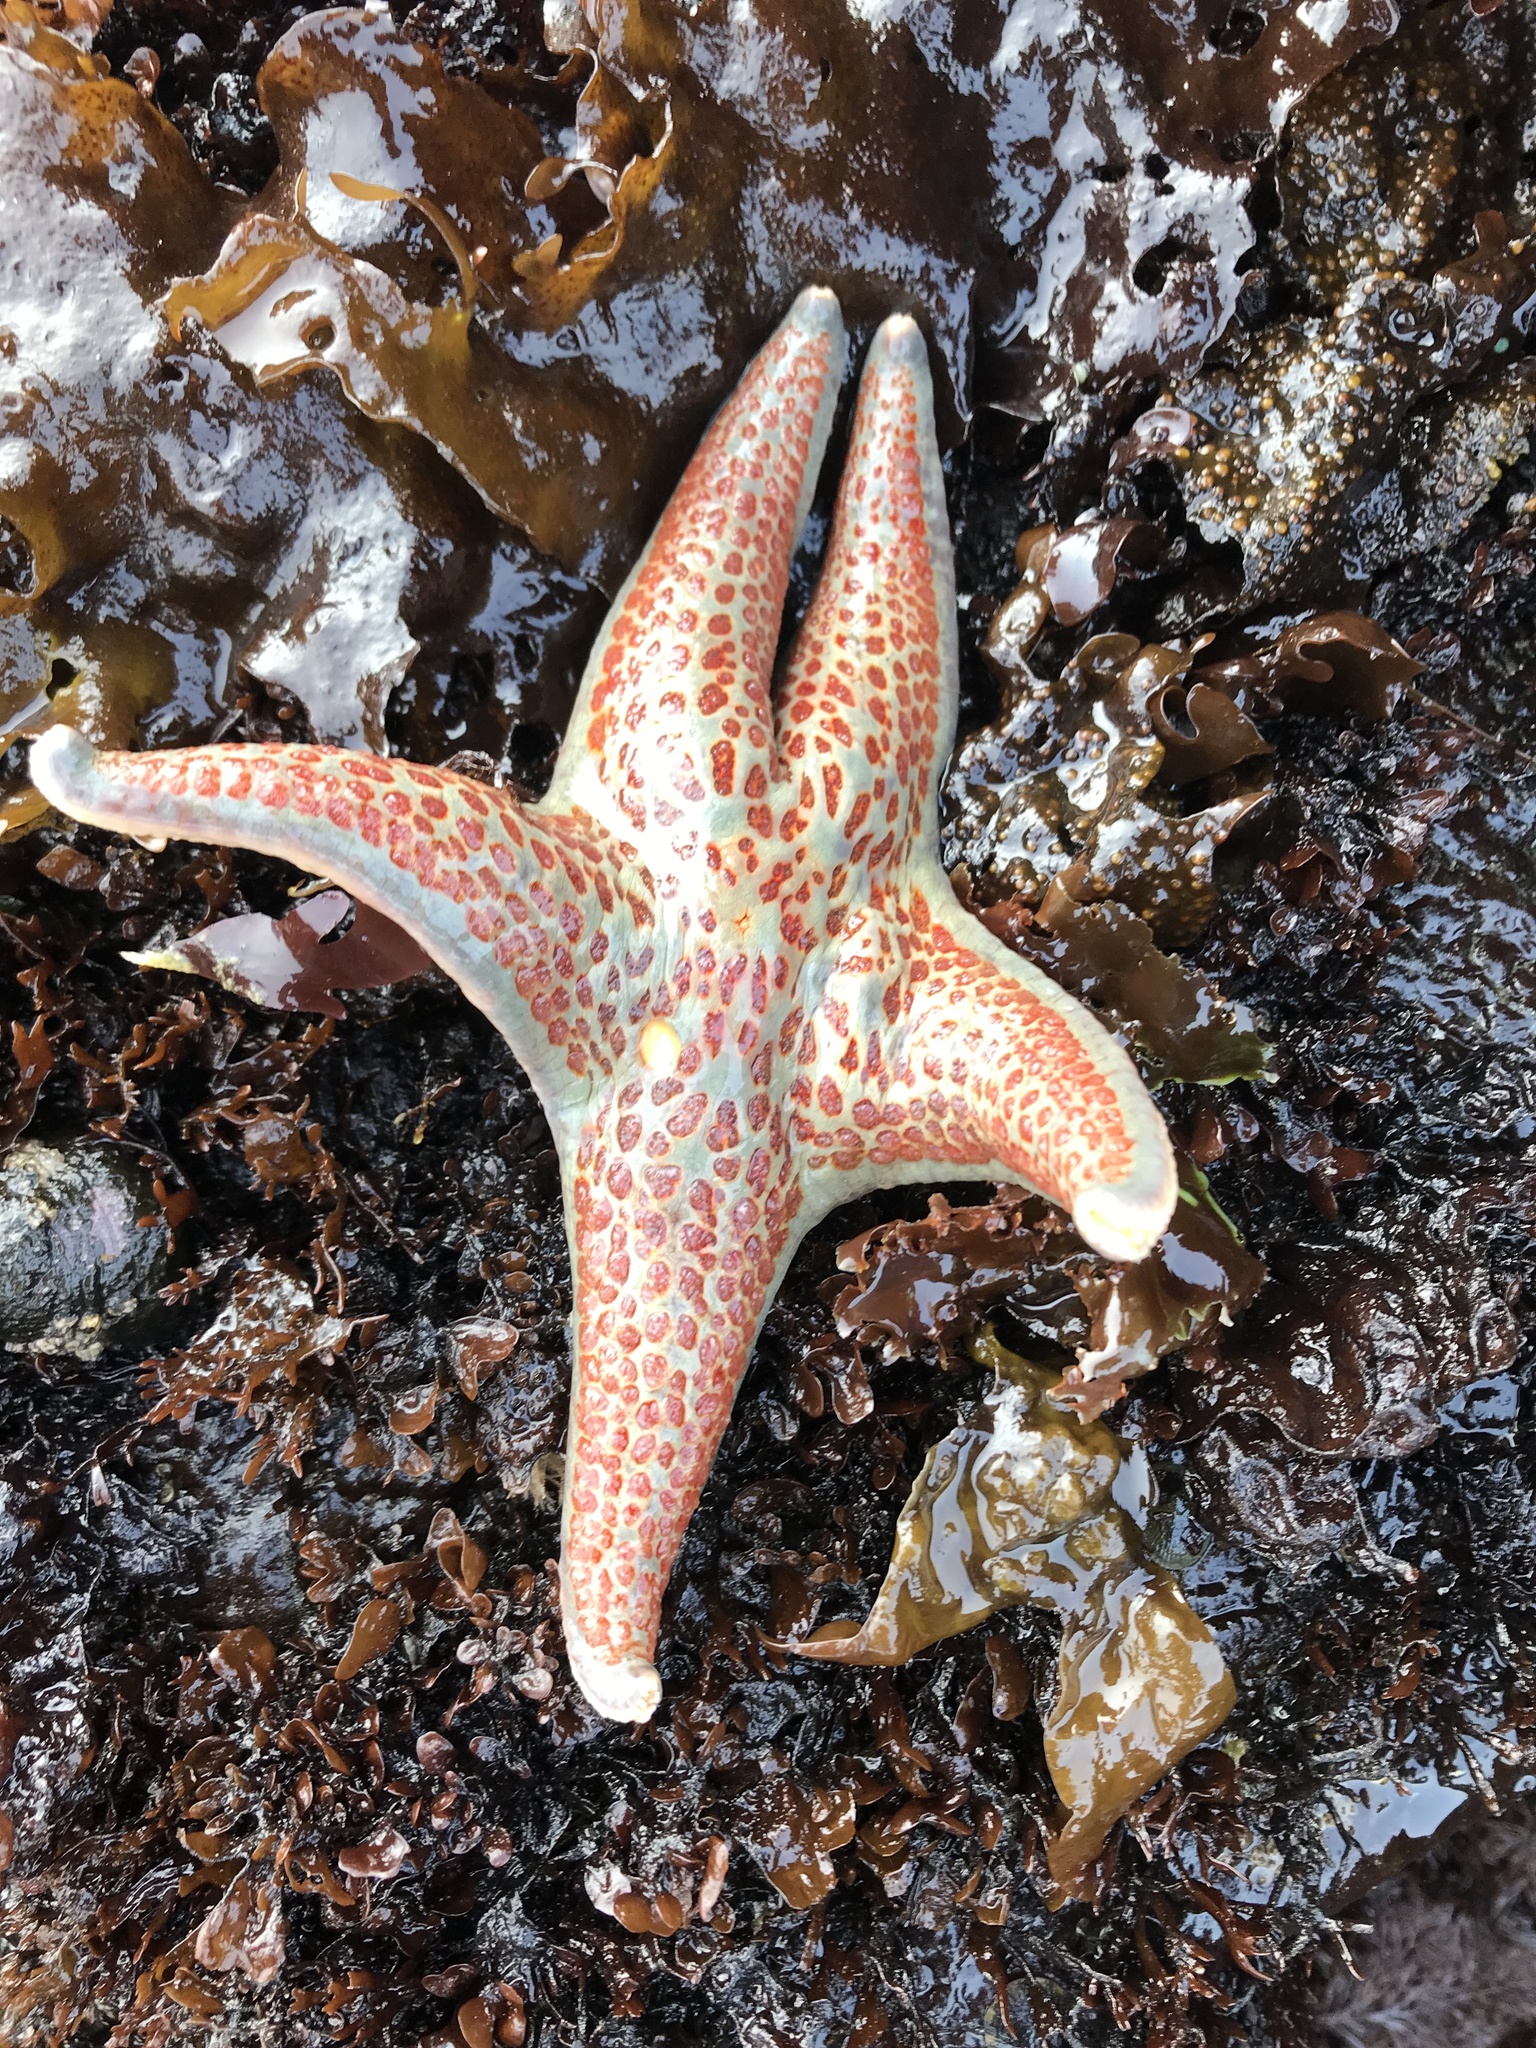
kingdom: Animalia
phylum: Echinodermata
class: Asteroidea
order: Valvatida
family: Asteropseidae
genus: Dermasterias
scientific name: Dermasterias imbricata
